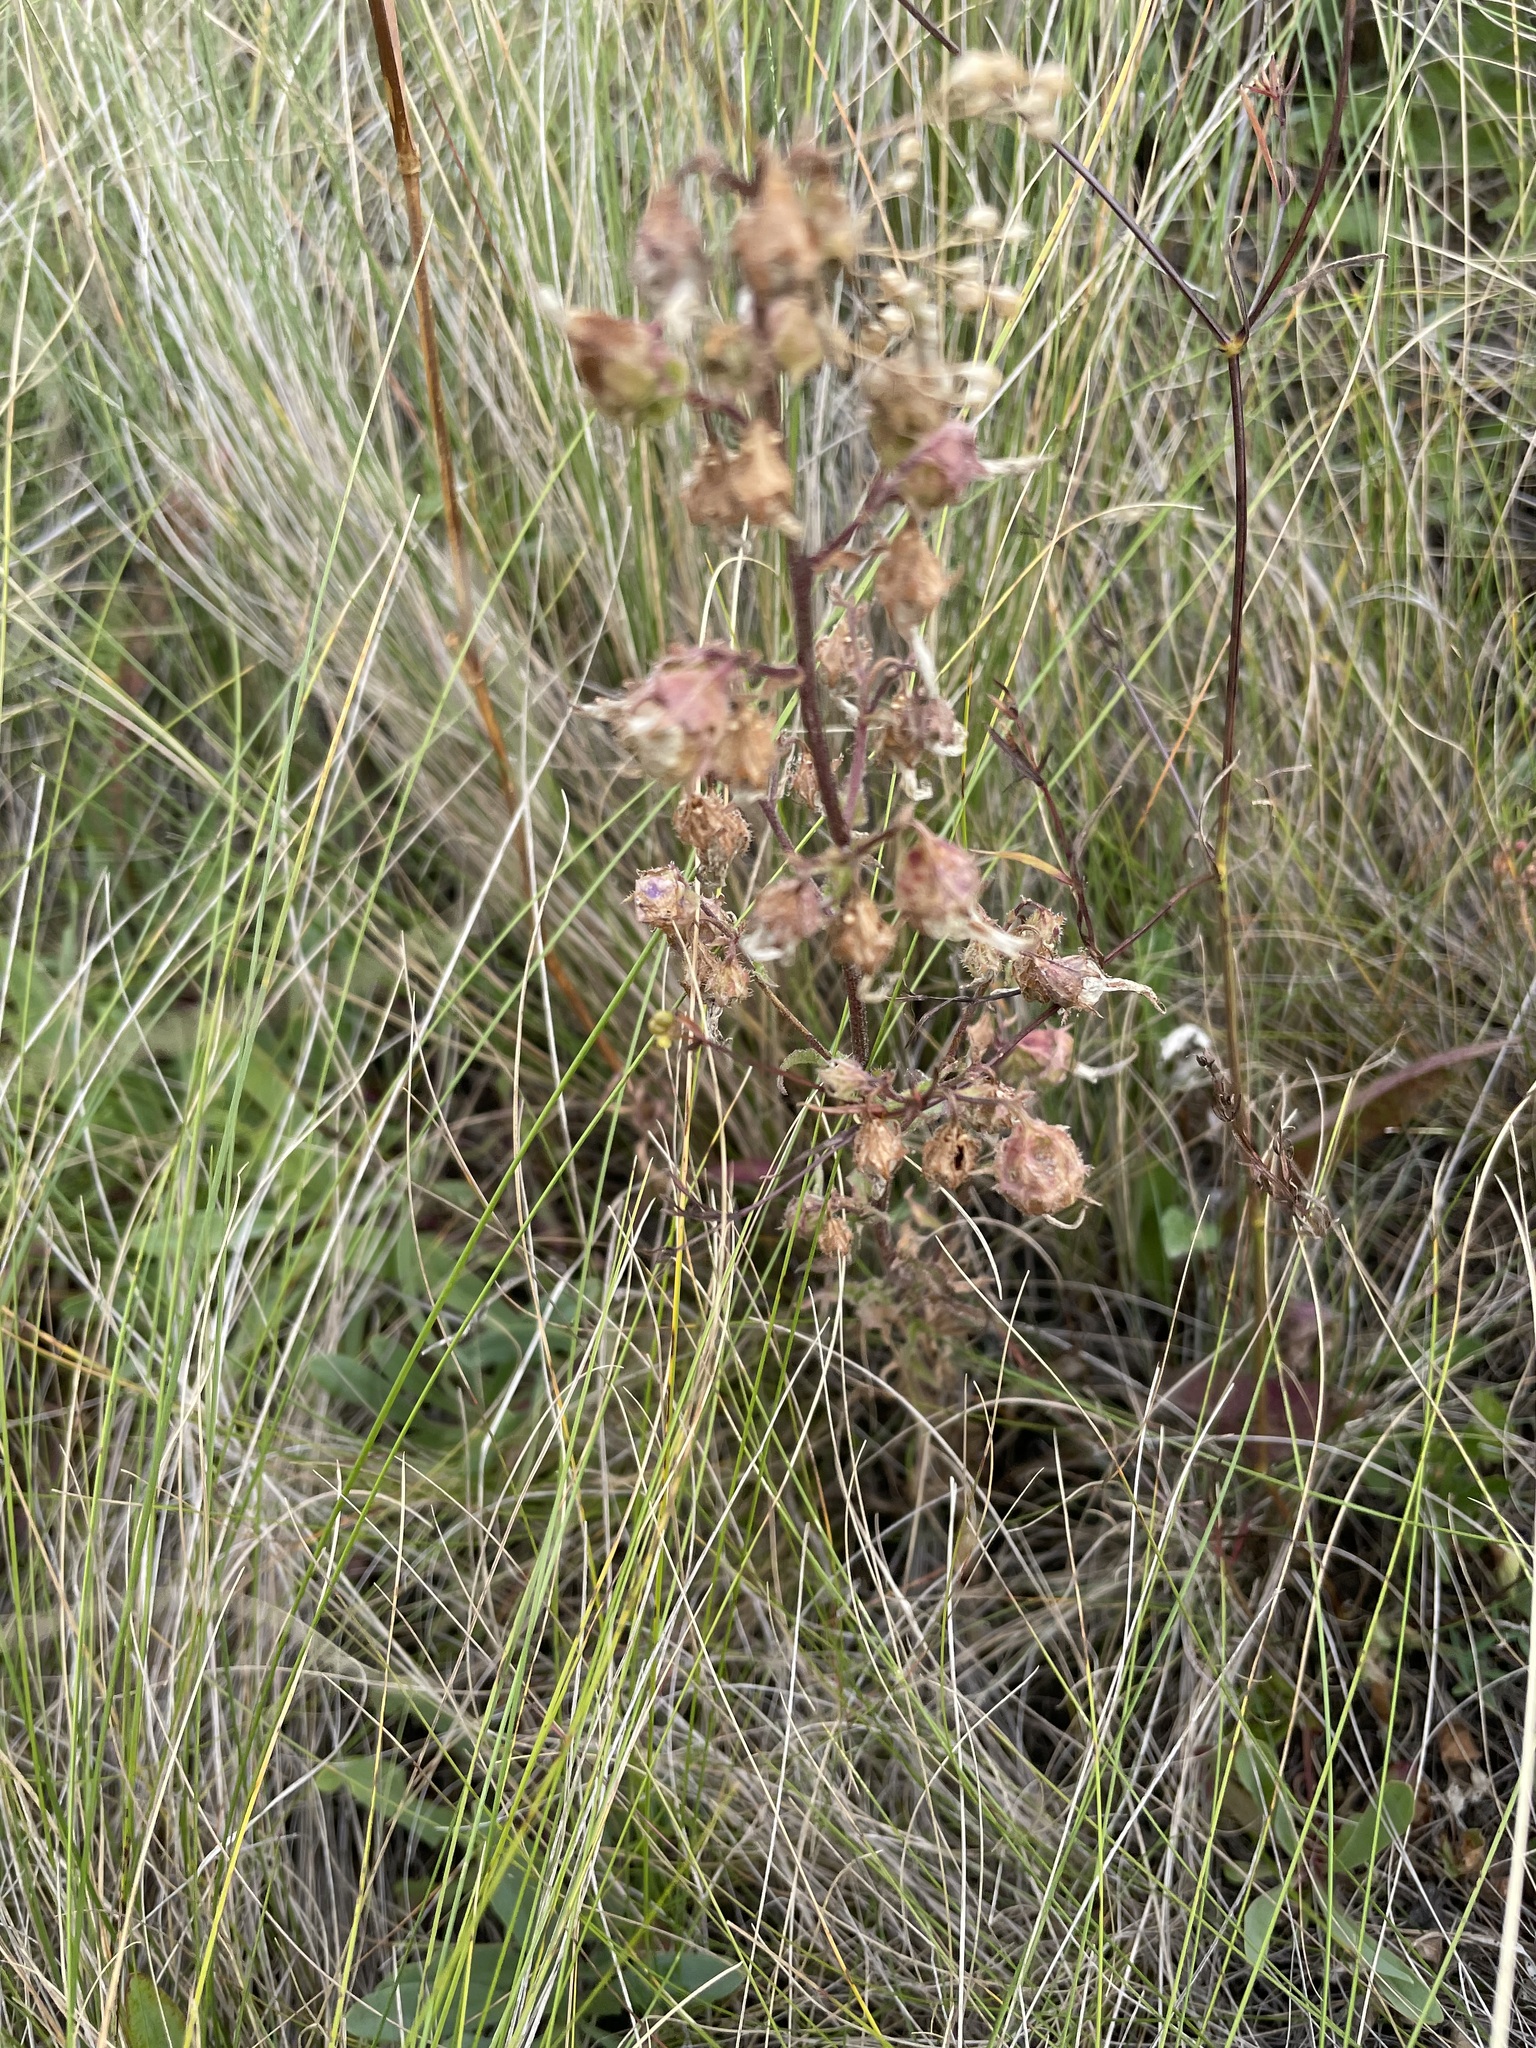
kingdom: Plantae
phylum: Tracheophyta
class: Magnoliopsida
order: Asterales
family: Campanulaceae
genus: Campanula
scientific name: Campanula sibirica
